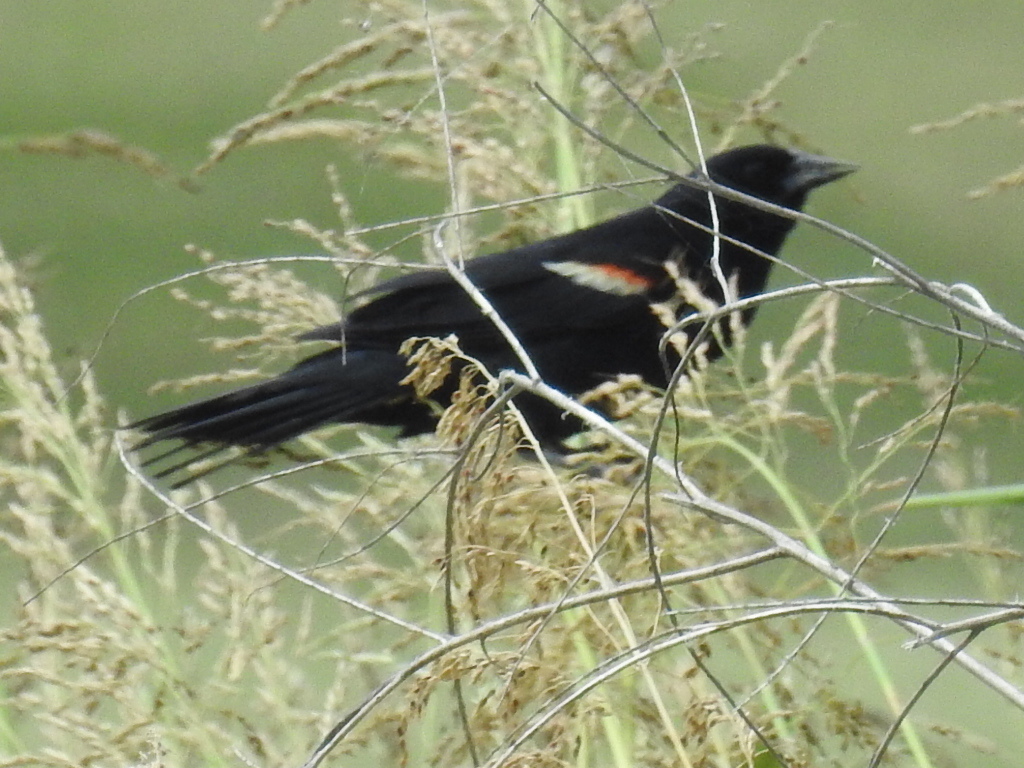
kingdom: Animalia
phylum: Chordata
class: Aves
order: Passeriformes
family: Icteridae
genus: Agelaius
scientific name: Agelaius phoeniceus
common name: Red-winged blackbird
